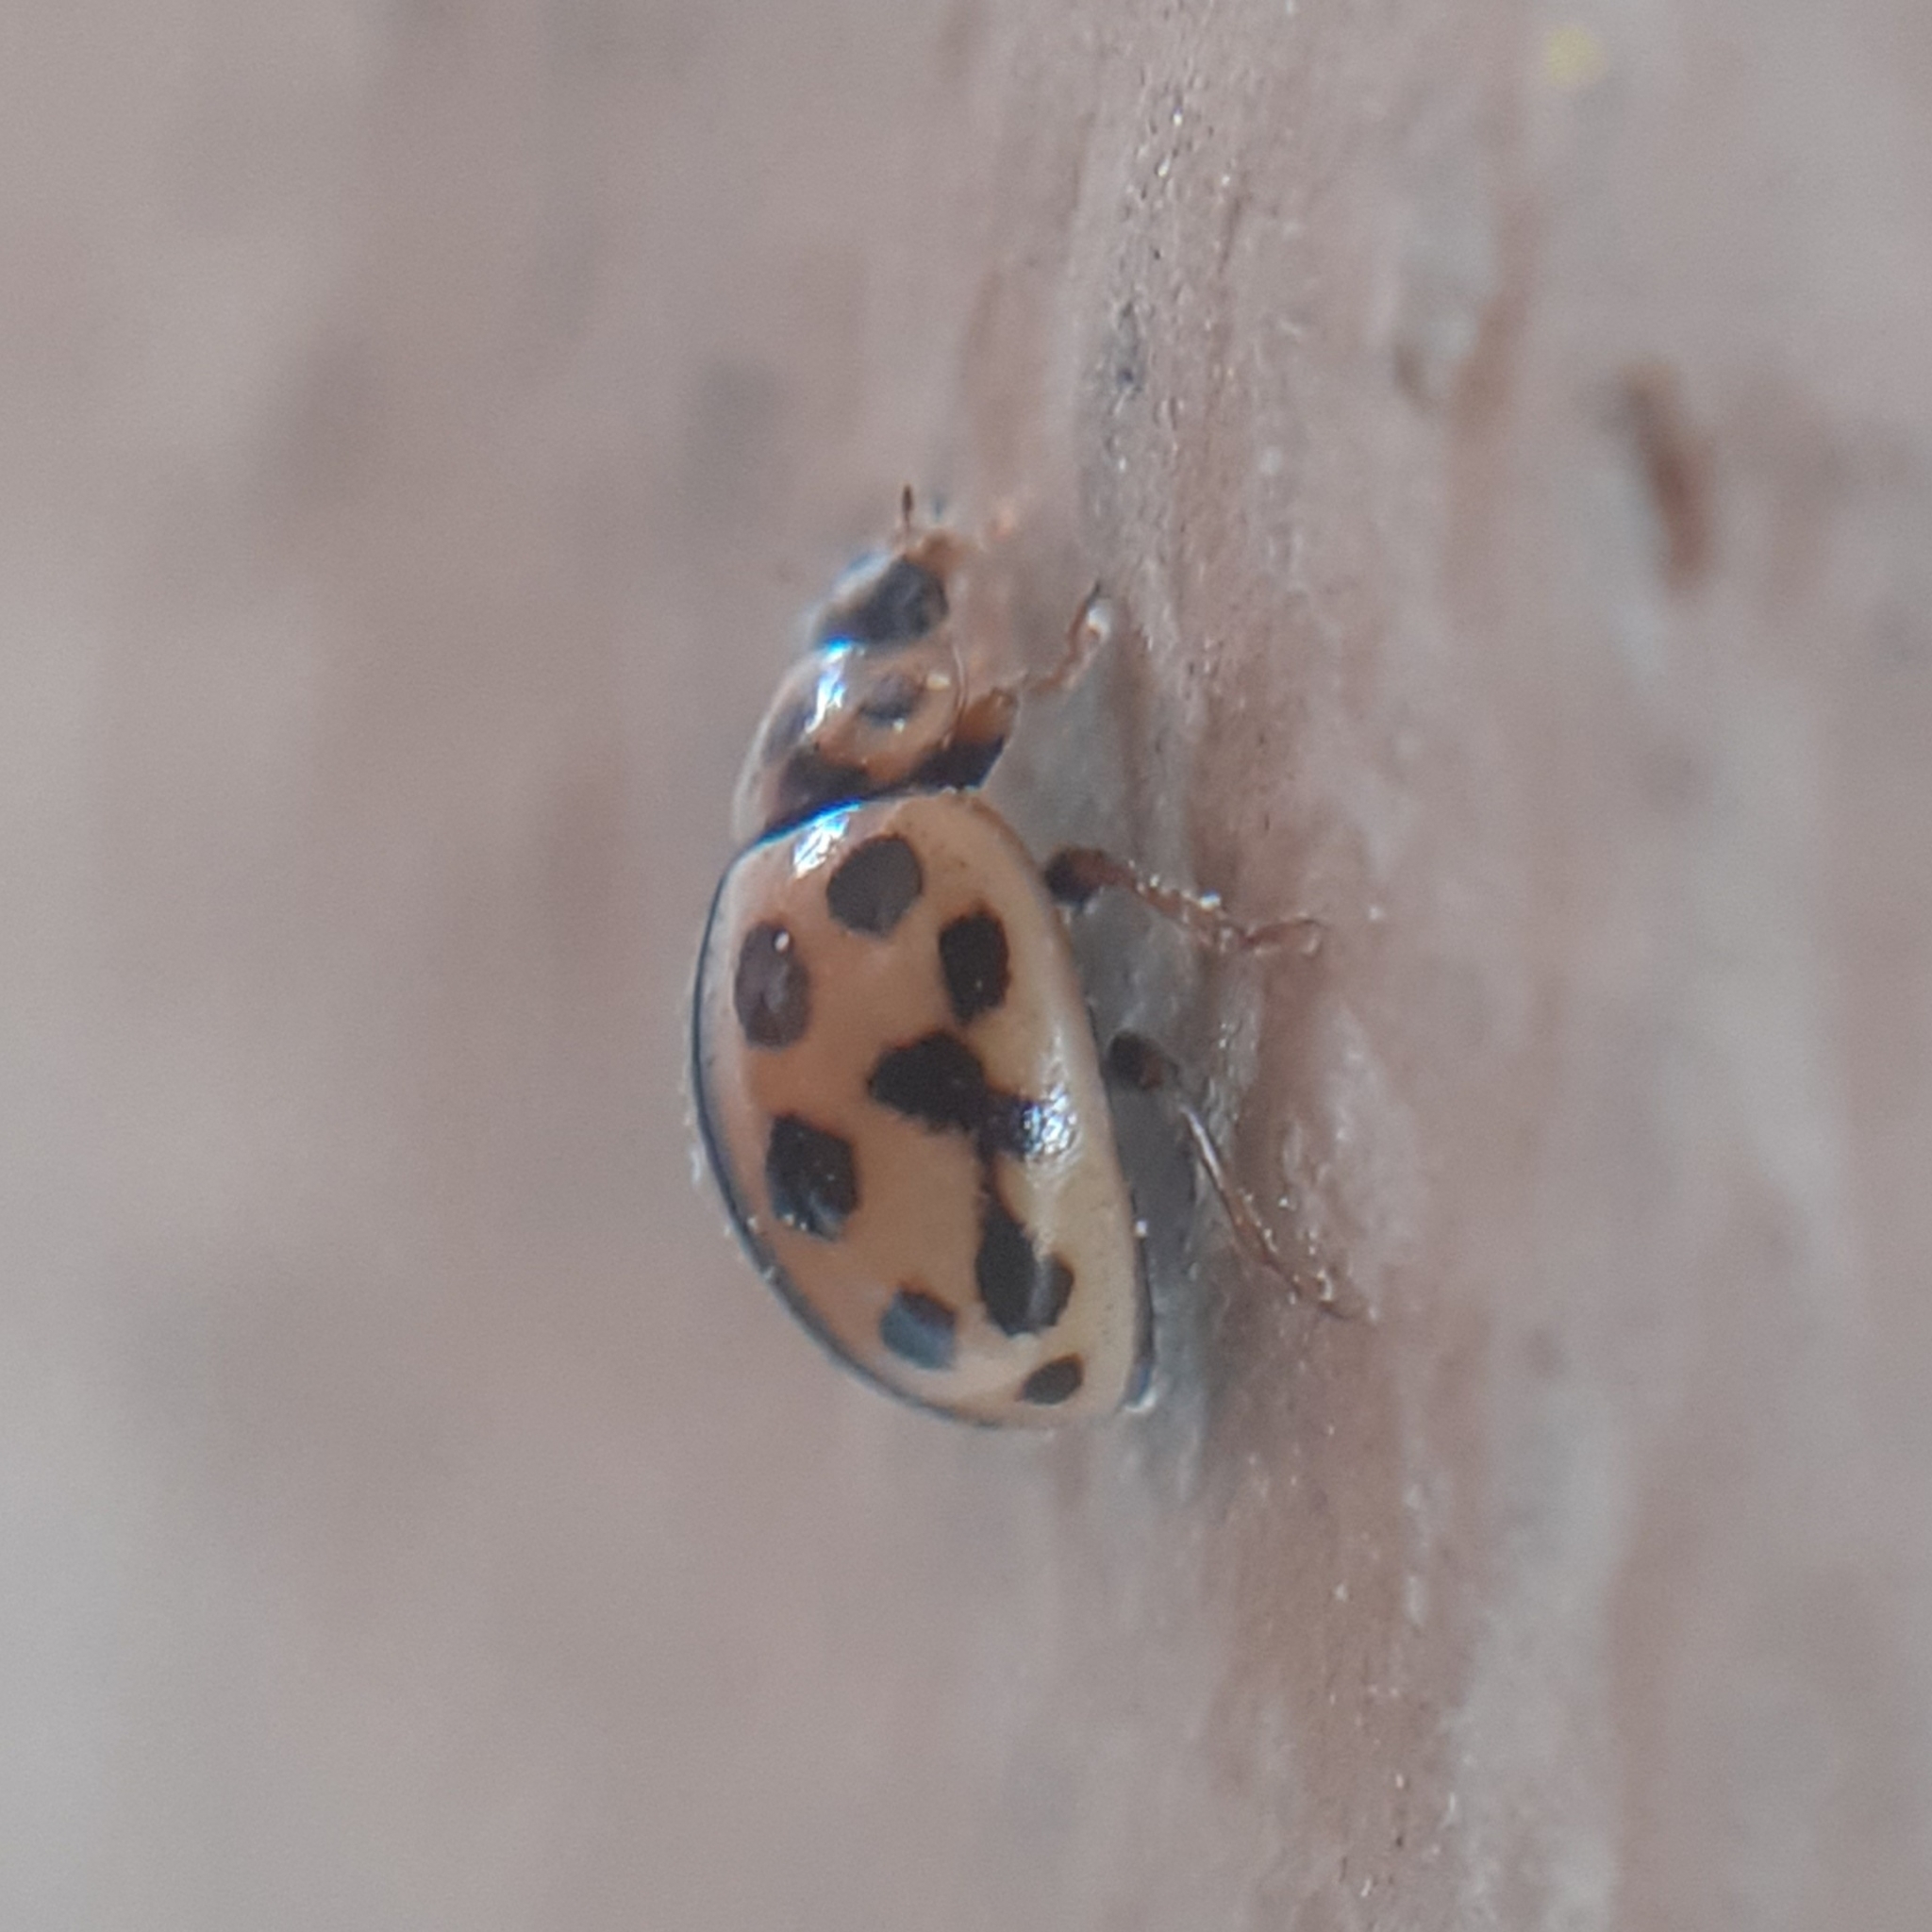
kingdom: Animalia
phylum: Arthropoda
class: Insecta
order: Coleoptera
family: Coccinellidae
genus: Tytthaspis
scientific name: Tytthaspis sedecimpunctata
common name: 16-spot ladybird
